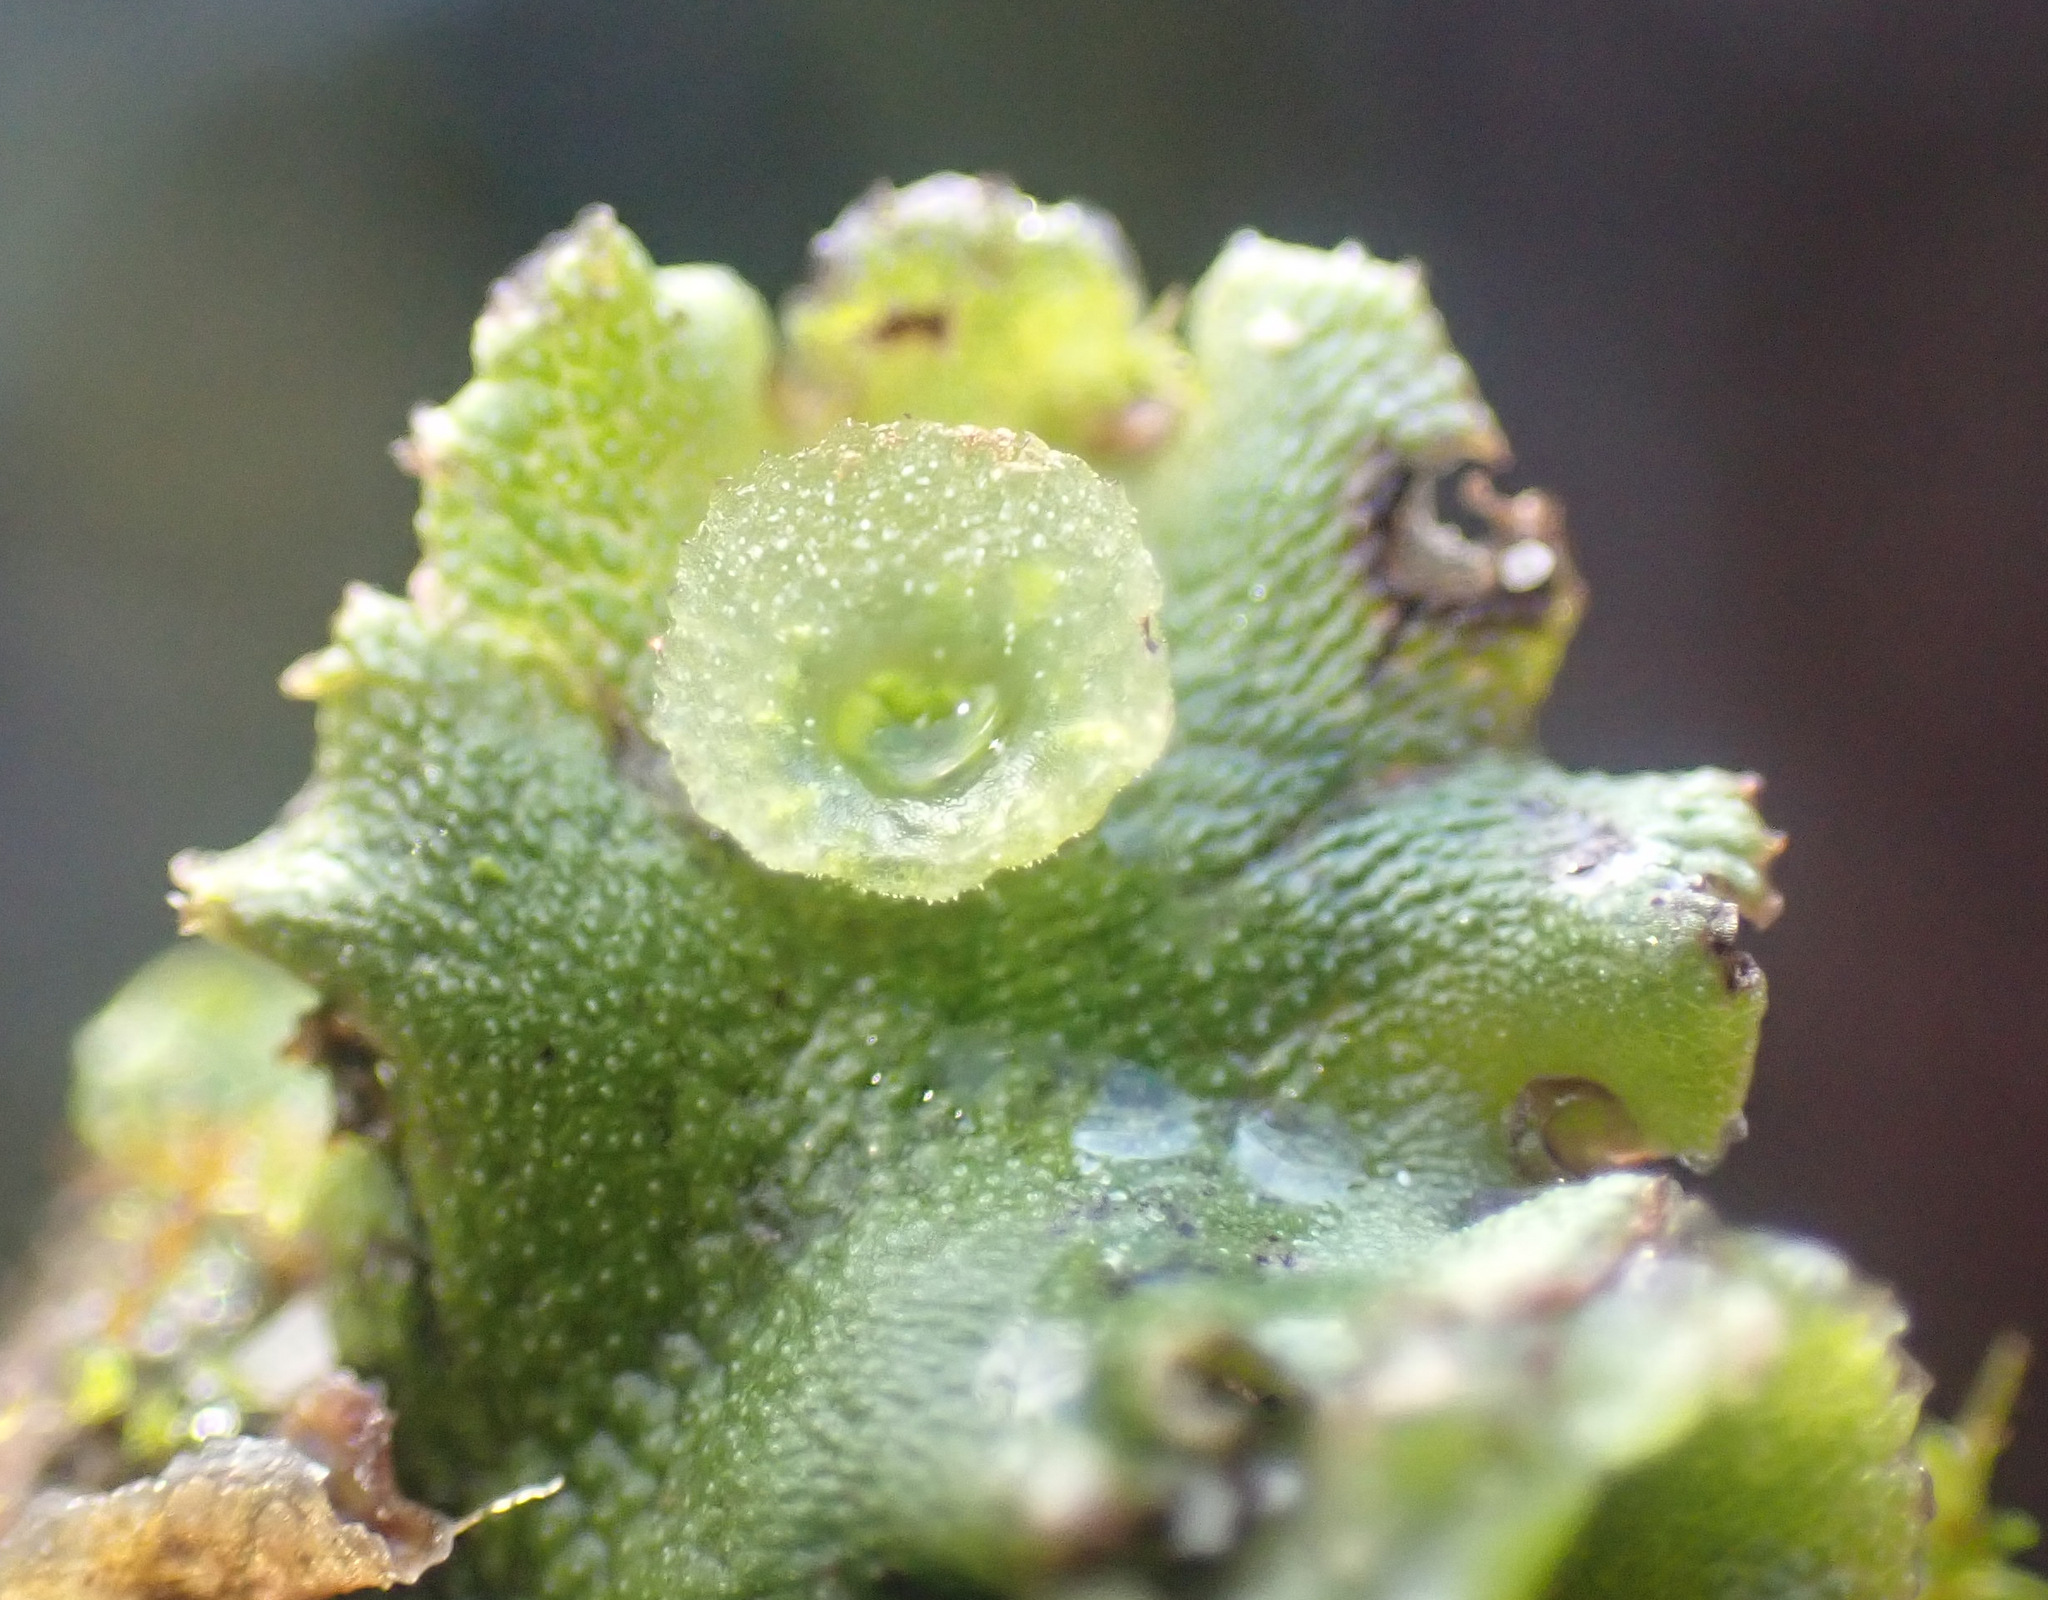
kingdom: Plantae
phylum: Marchantiophyta
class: Marchantiopsida
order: Marchantiales
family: Marchantiaceae
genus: Marchantia
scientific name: Marchantia polymorpha
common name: Common liverwort
